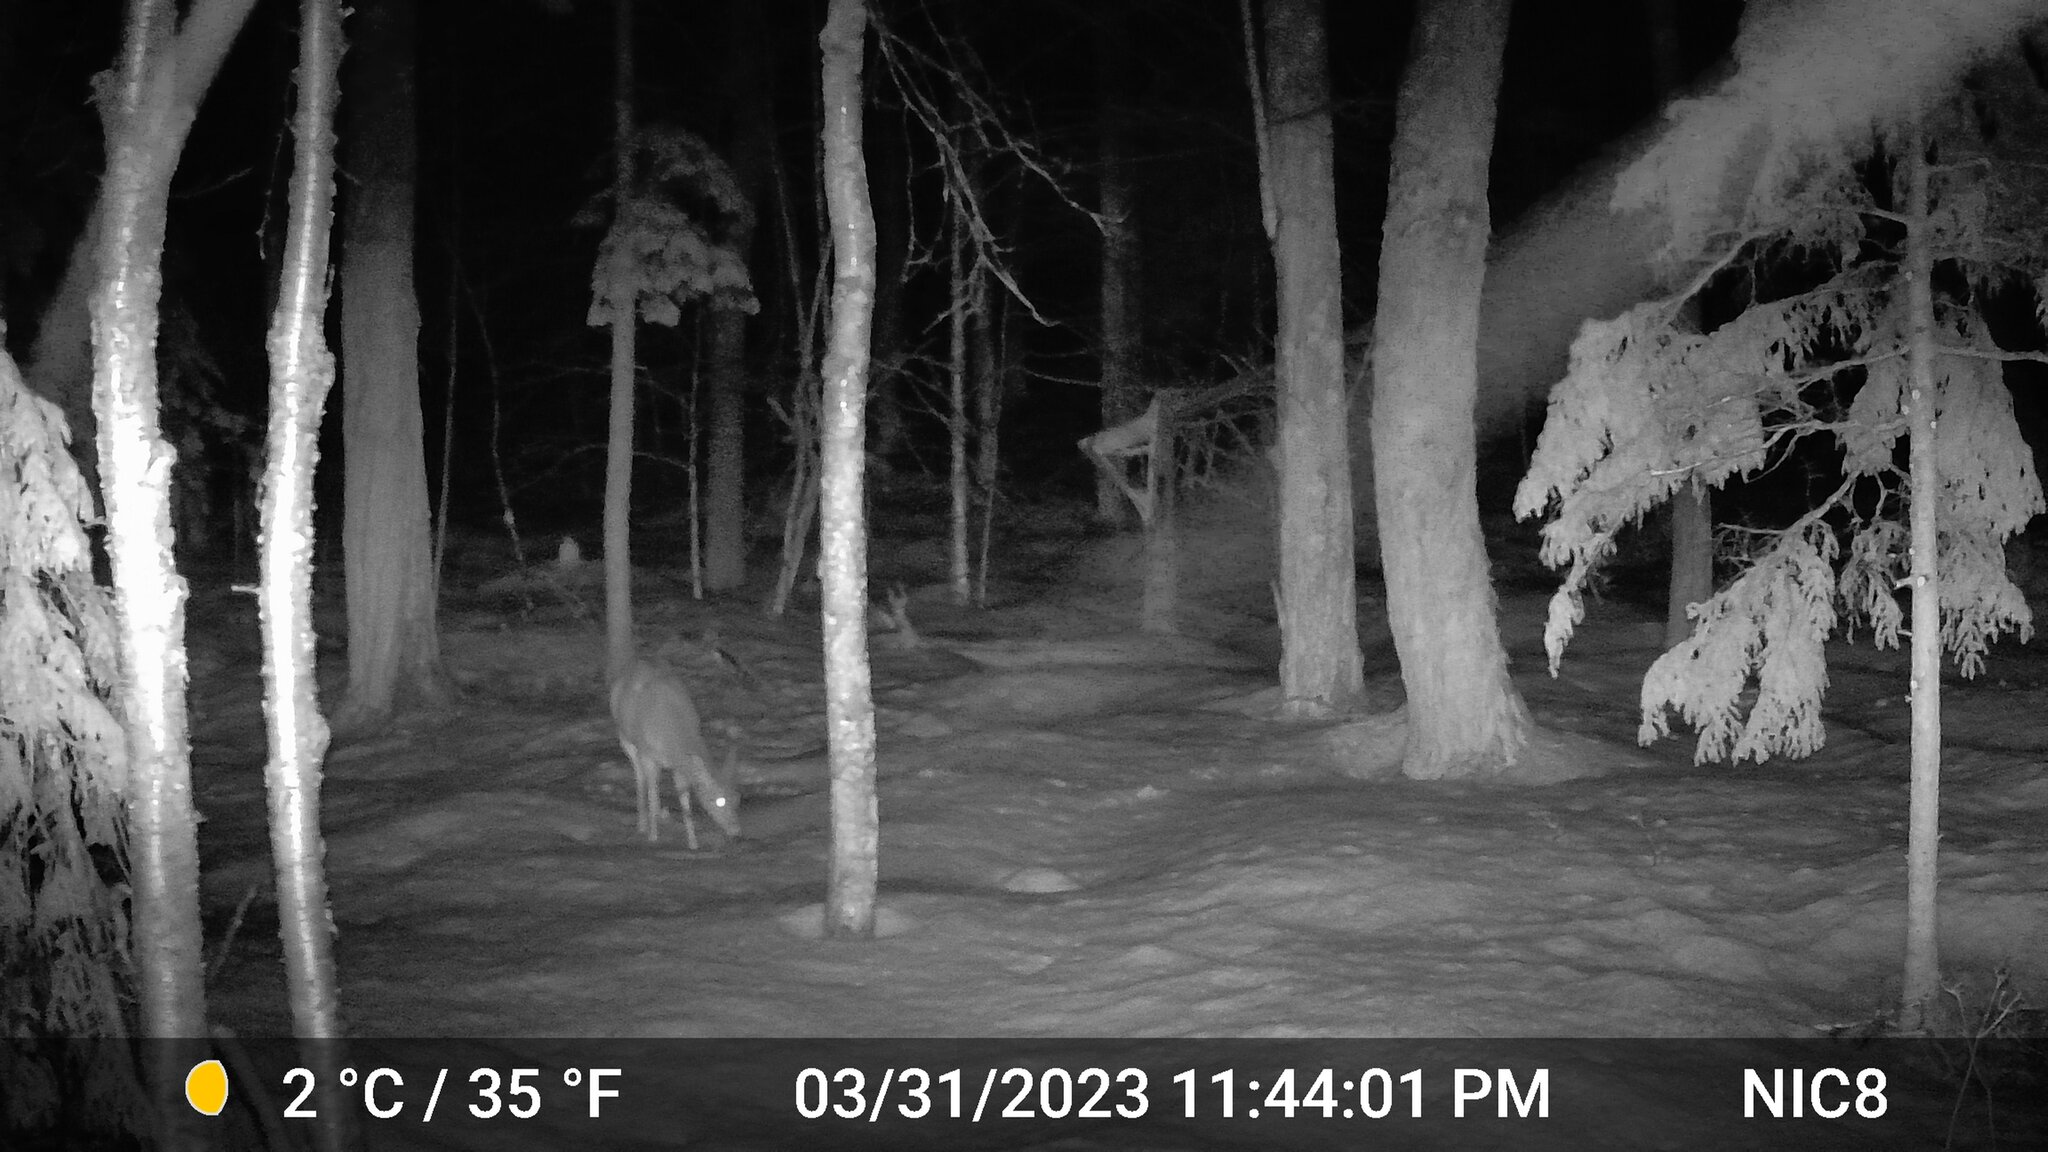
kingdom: Animalia
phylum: Chordata
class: Mammalia
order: Artiodactyla
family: Cervidae
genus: Odocoileus
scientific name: Odocoileus virginianus
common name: White-tailed deer
